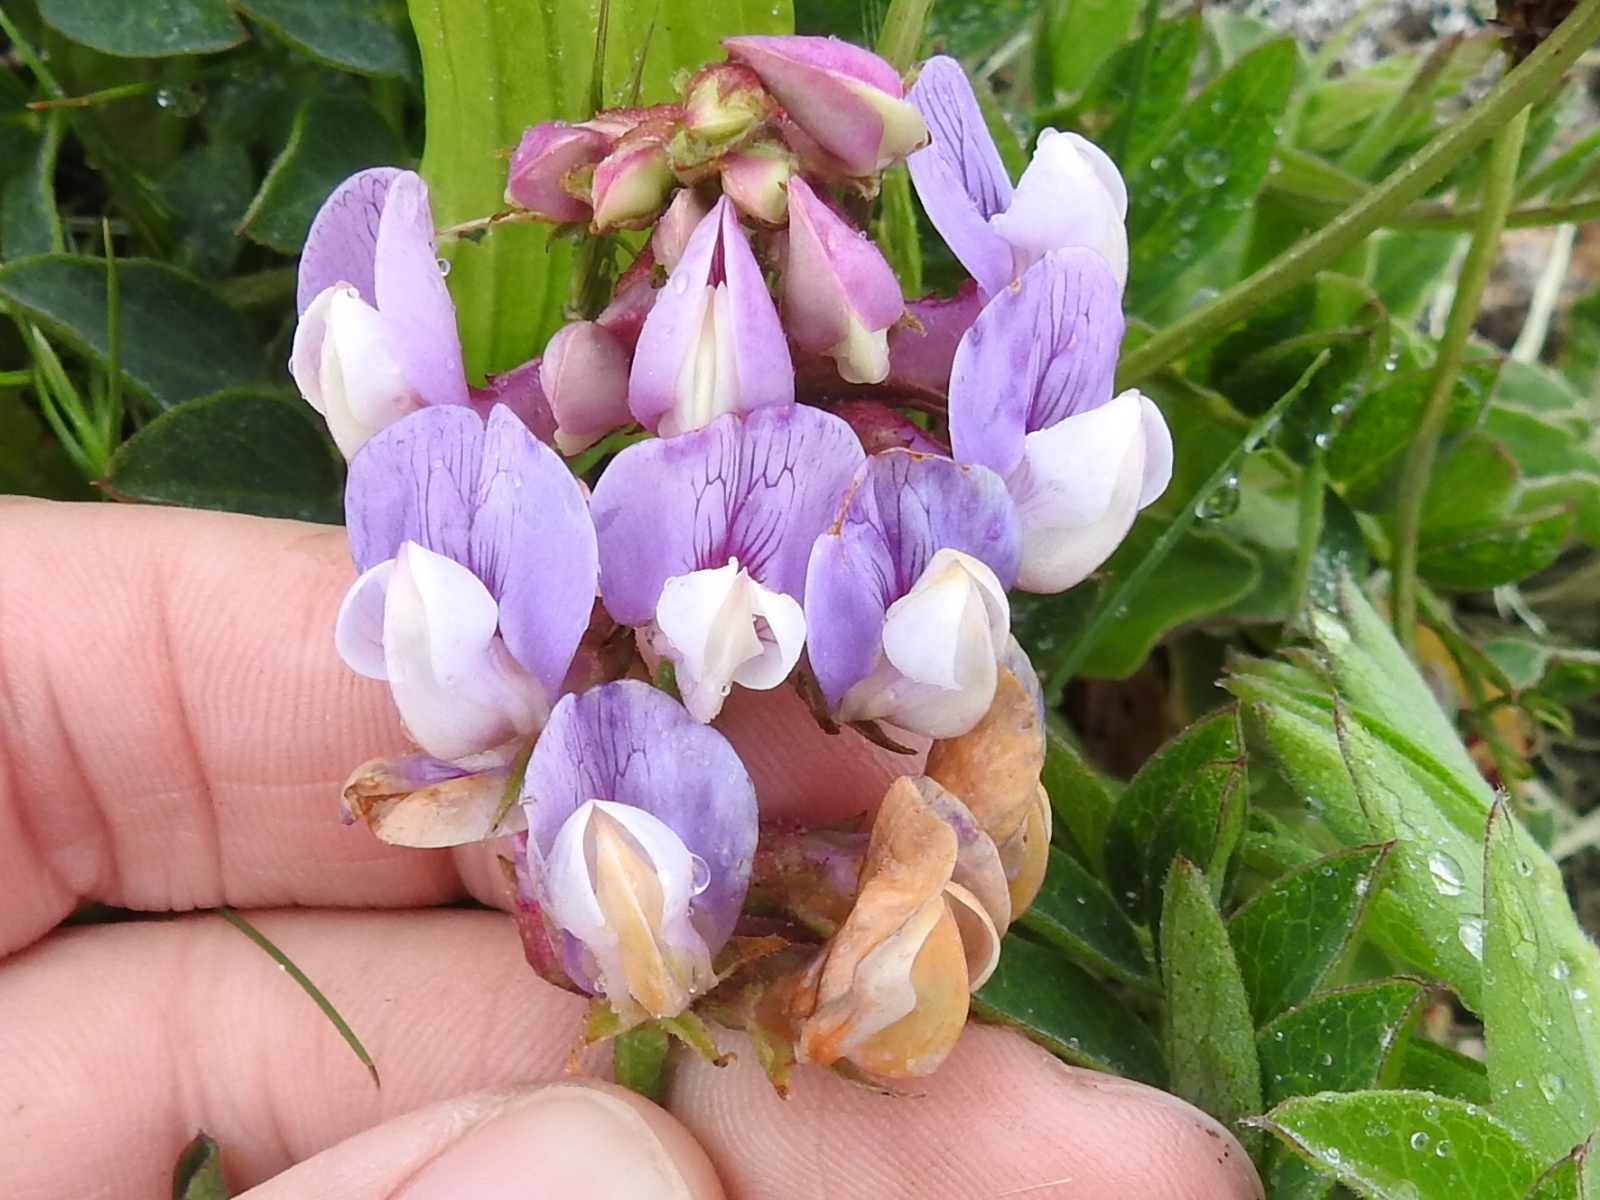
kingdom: Plantae
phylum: Tracheophyta
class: Magnoliopsida
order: Fabales
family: Fabaceae
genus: Lathyrus
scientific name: Lathyrus vestitus
